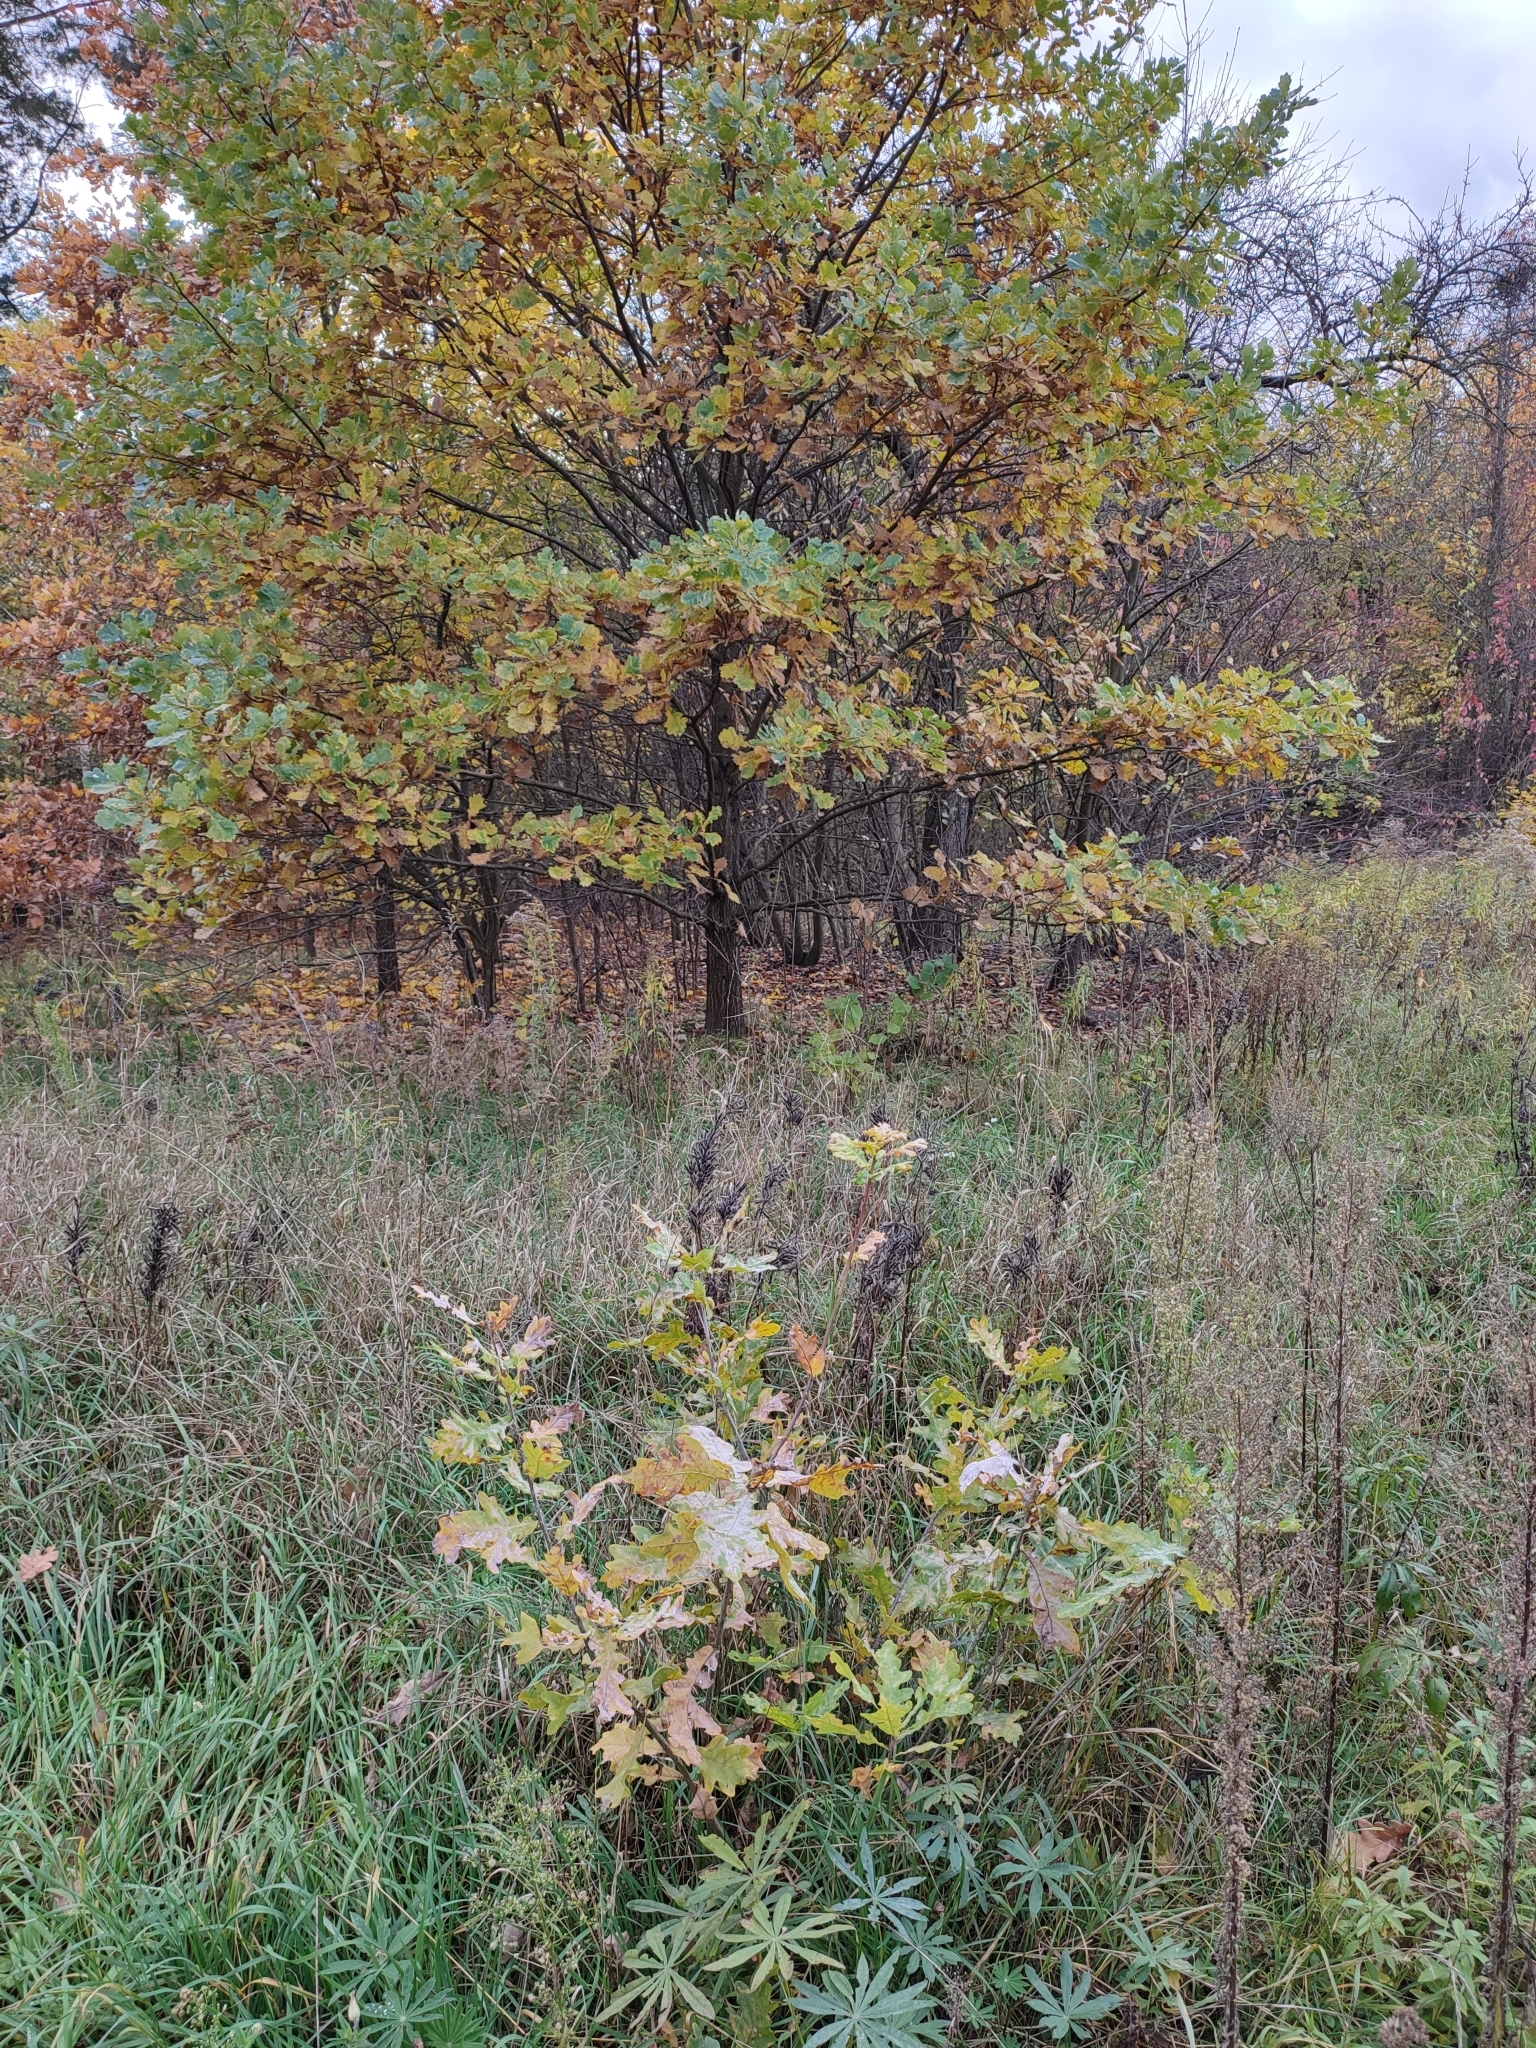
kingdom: Plantae
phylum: Tracheophyta
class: Magnoliopsida
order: Fagales
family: Fagaceae
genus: Quercus
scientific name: Quercus robur
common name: Pedunculate oak
